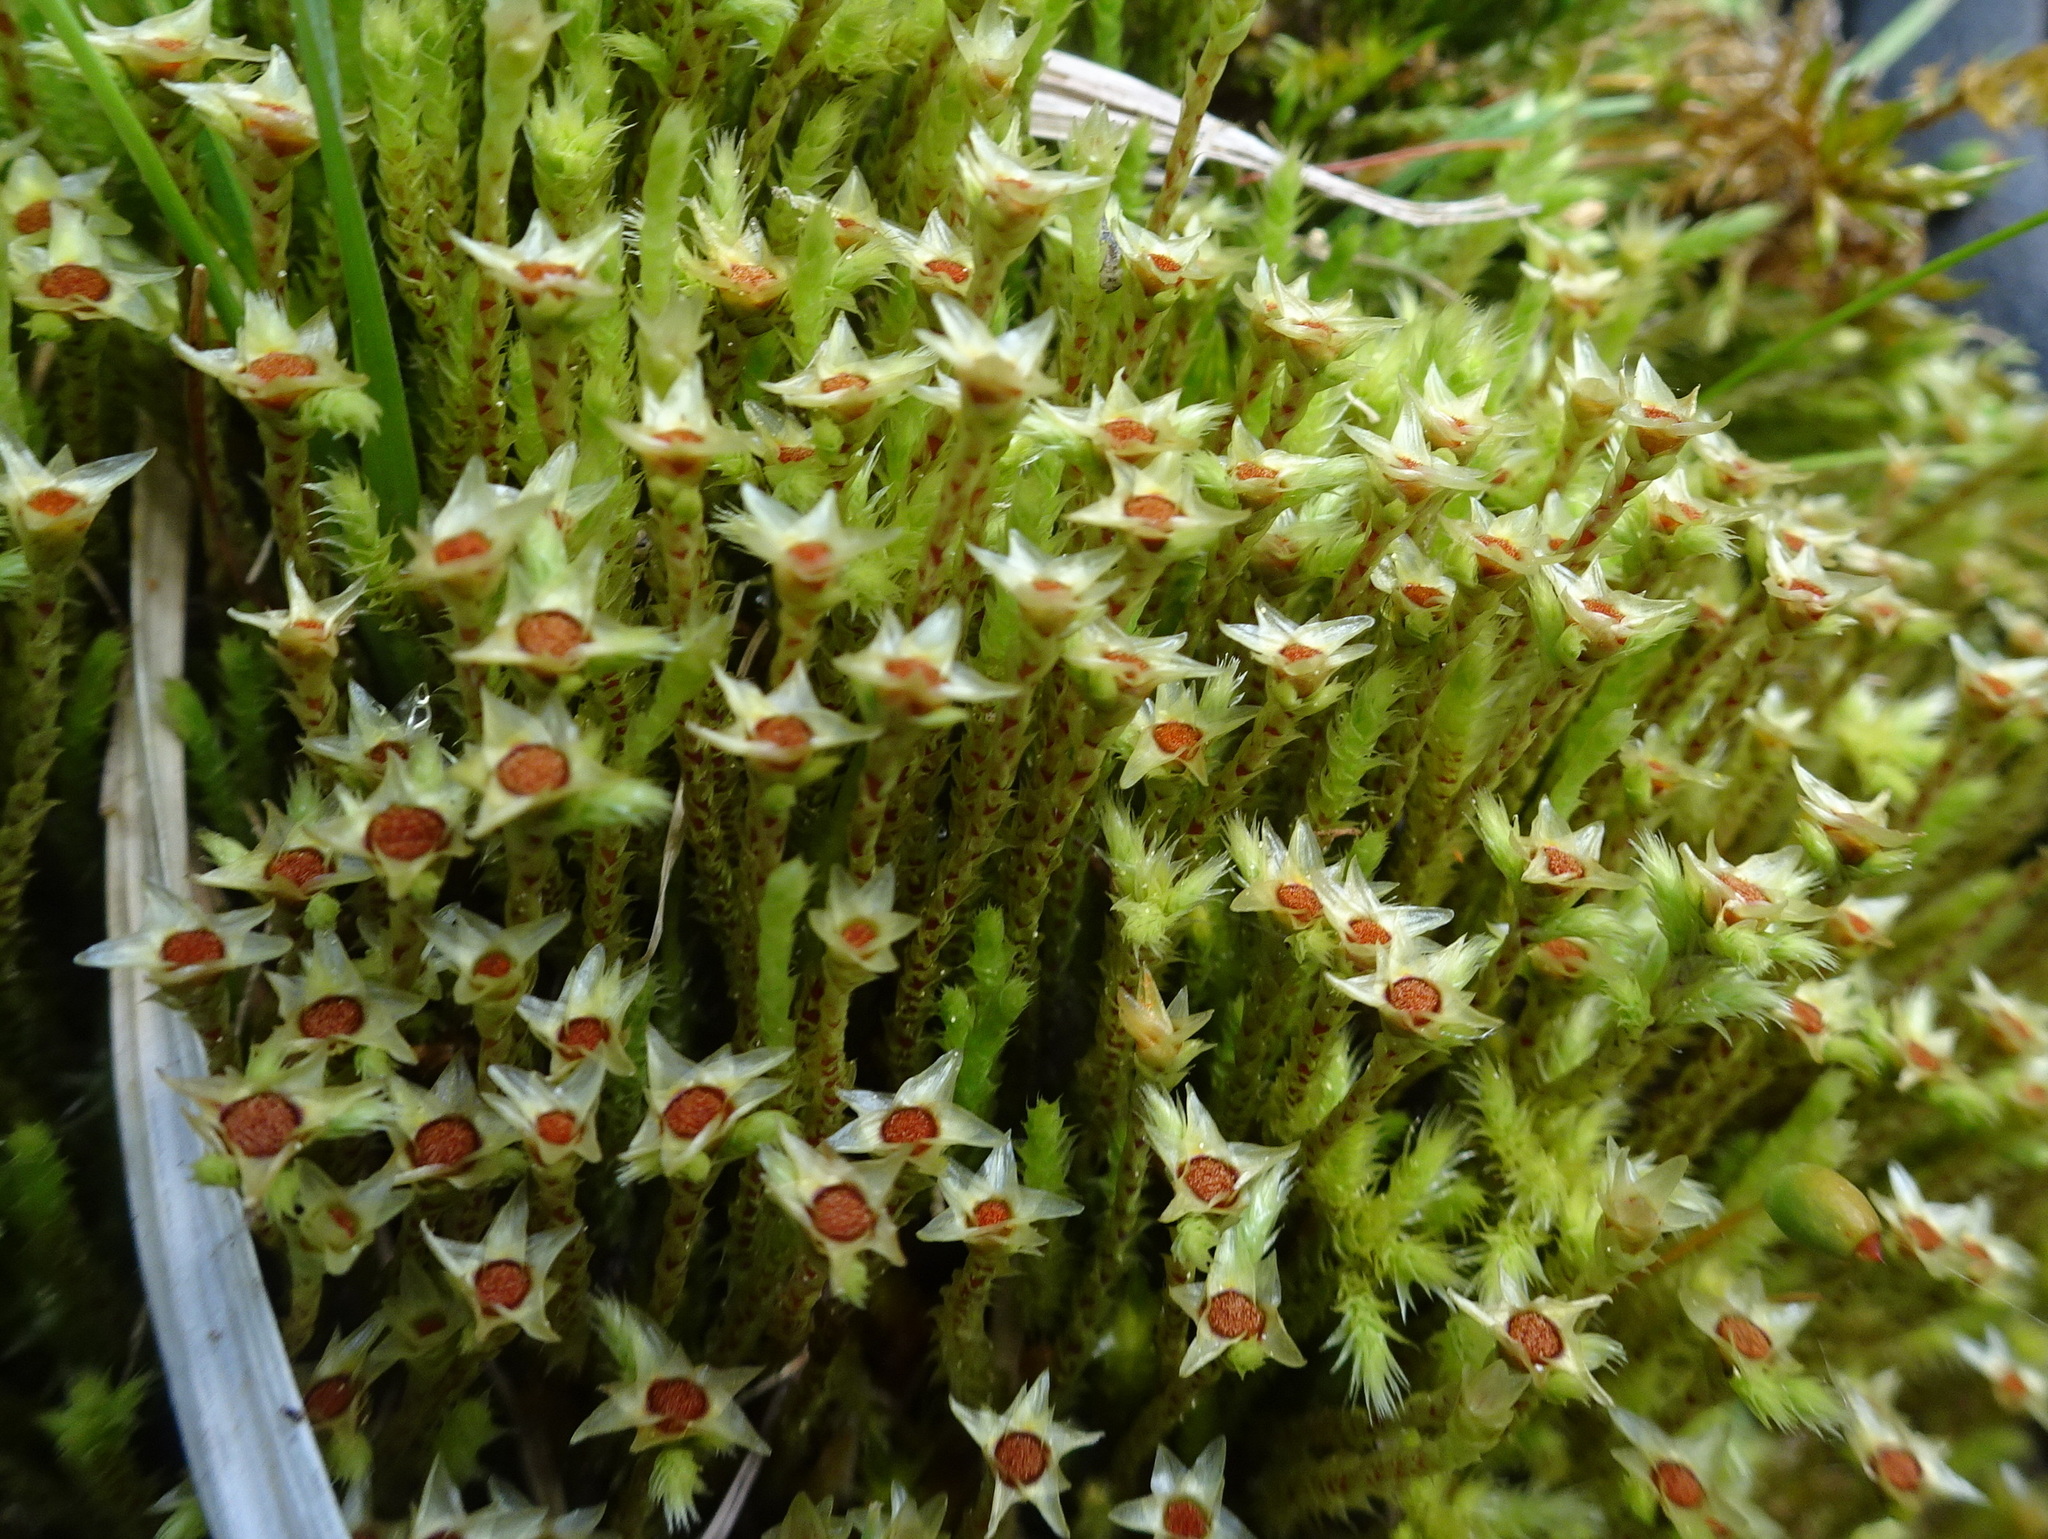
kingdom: Plantae
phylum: Bryophyta
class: Bryopsida
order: Bartramiales
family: Bartramiaceae
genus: Philonotis
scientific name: Philonotis fontana
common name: Fountain apple-moss
